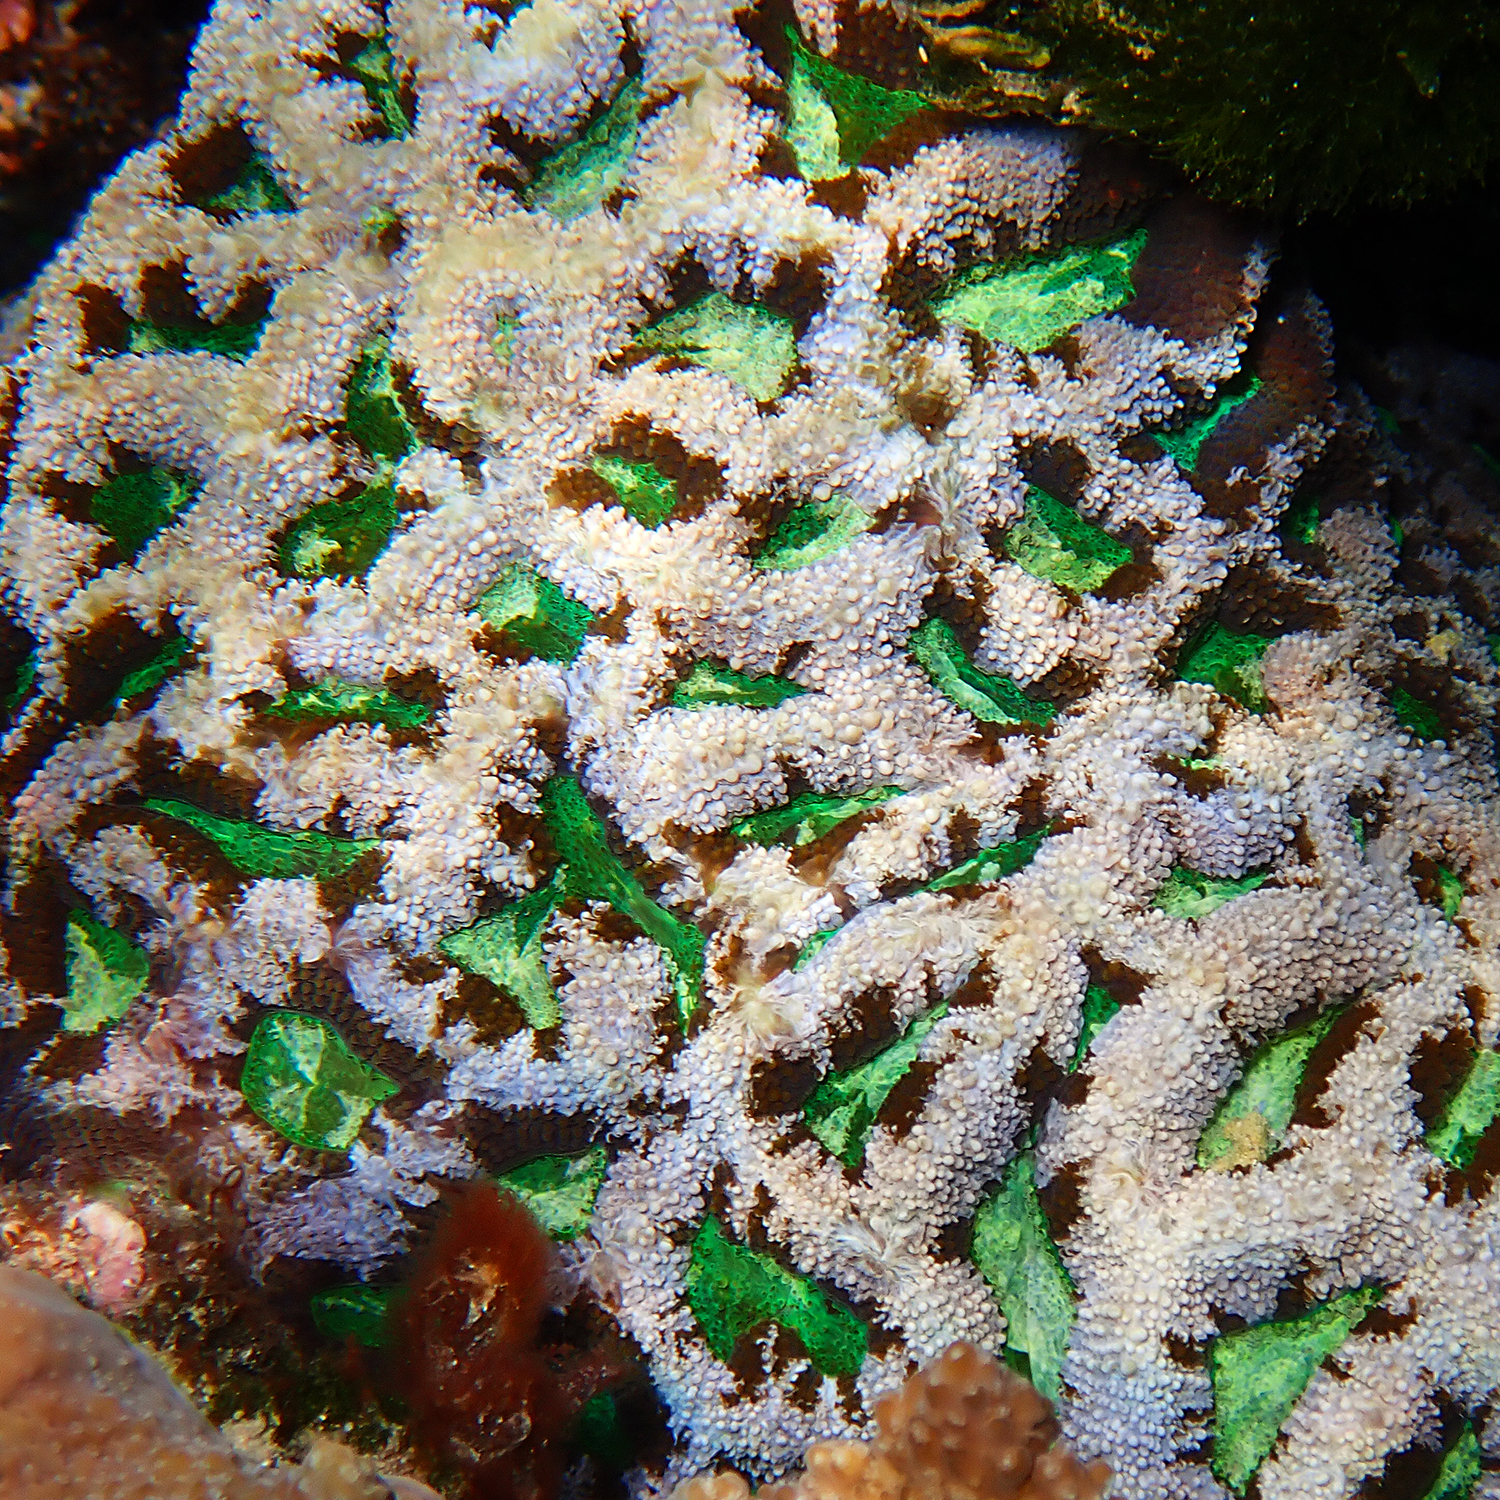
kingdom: Animalia
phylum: Cnidaria
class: Anthozoa
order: Scleractinia
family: Lobophylliidae
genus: Homophyllia
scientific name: Homophyllia bowerbanki
